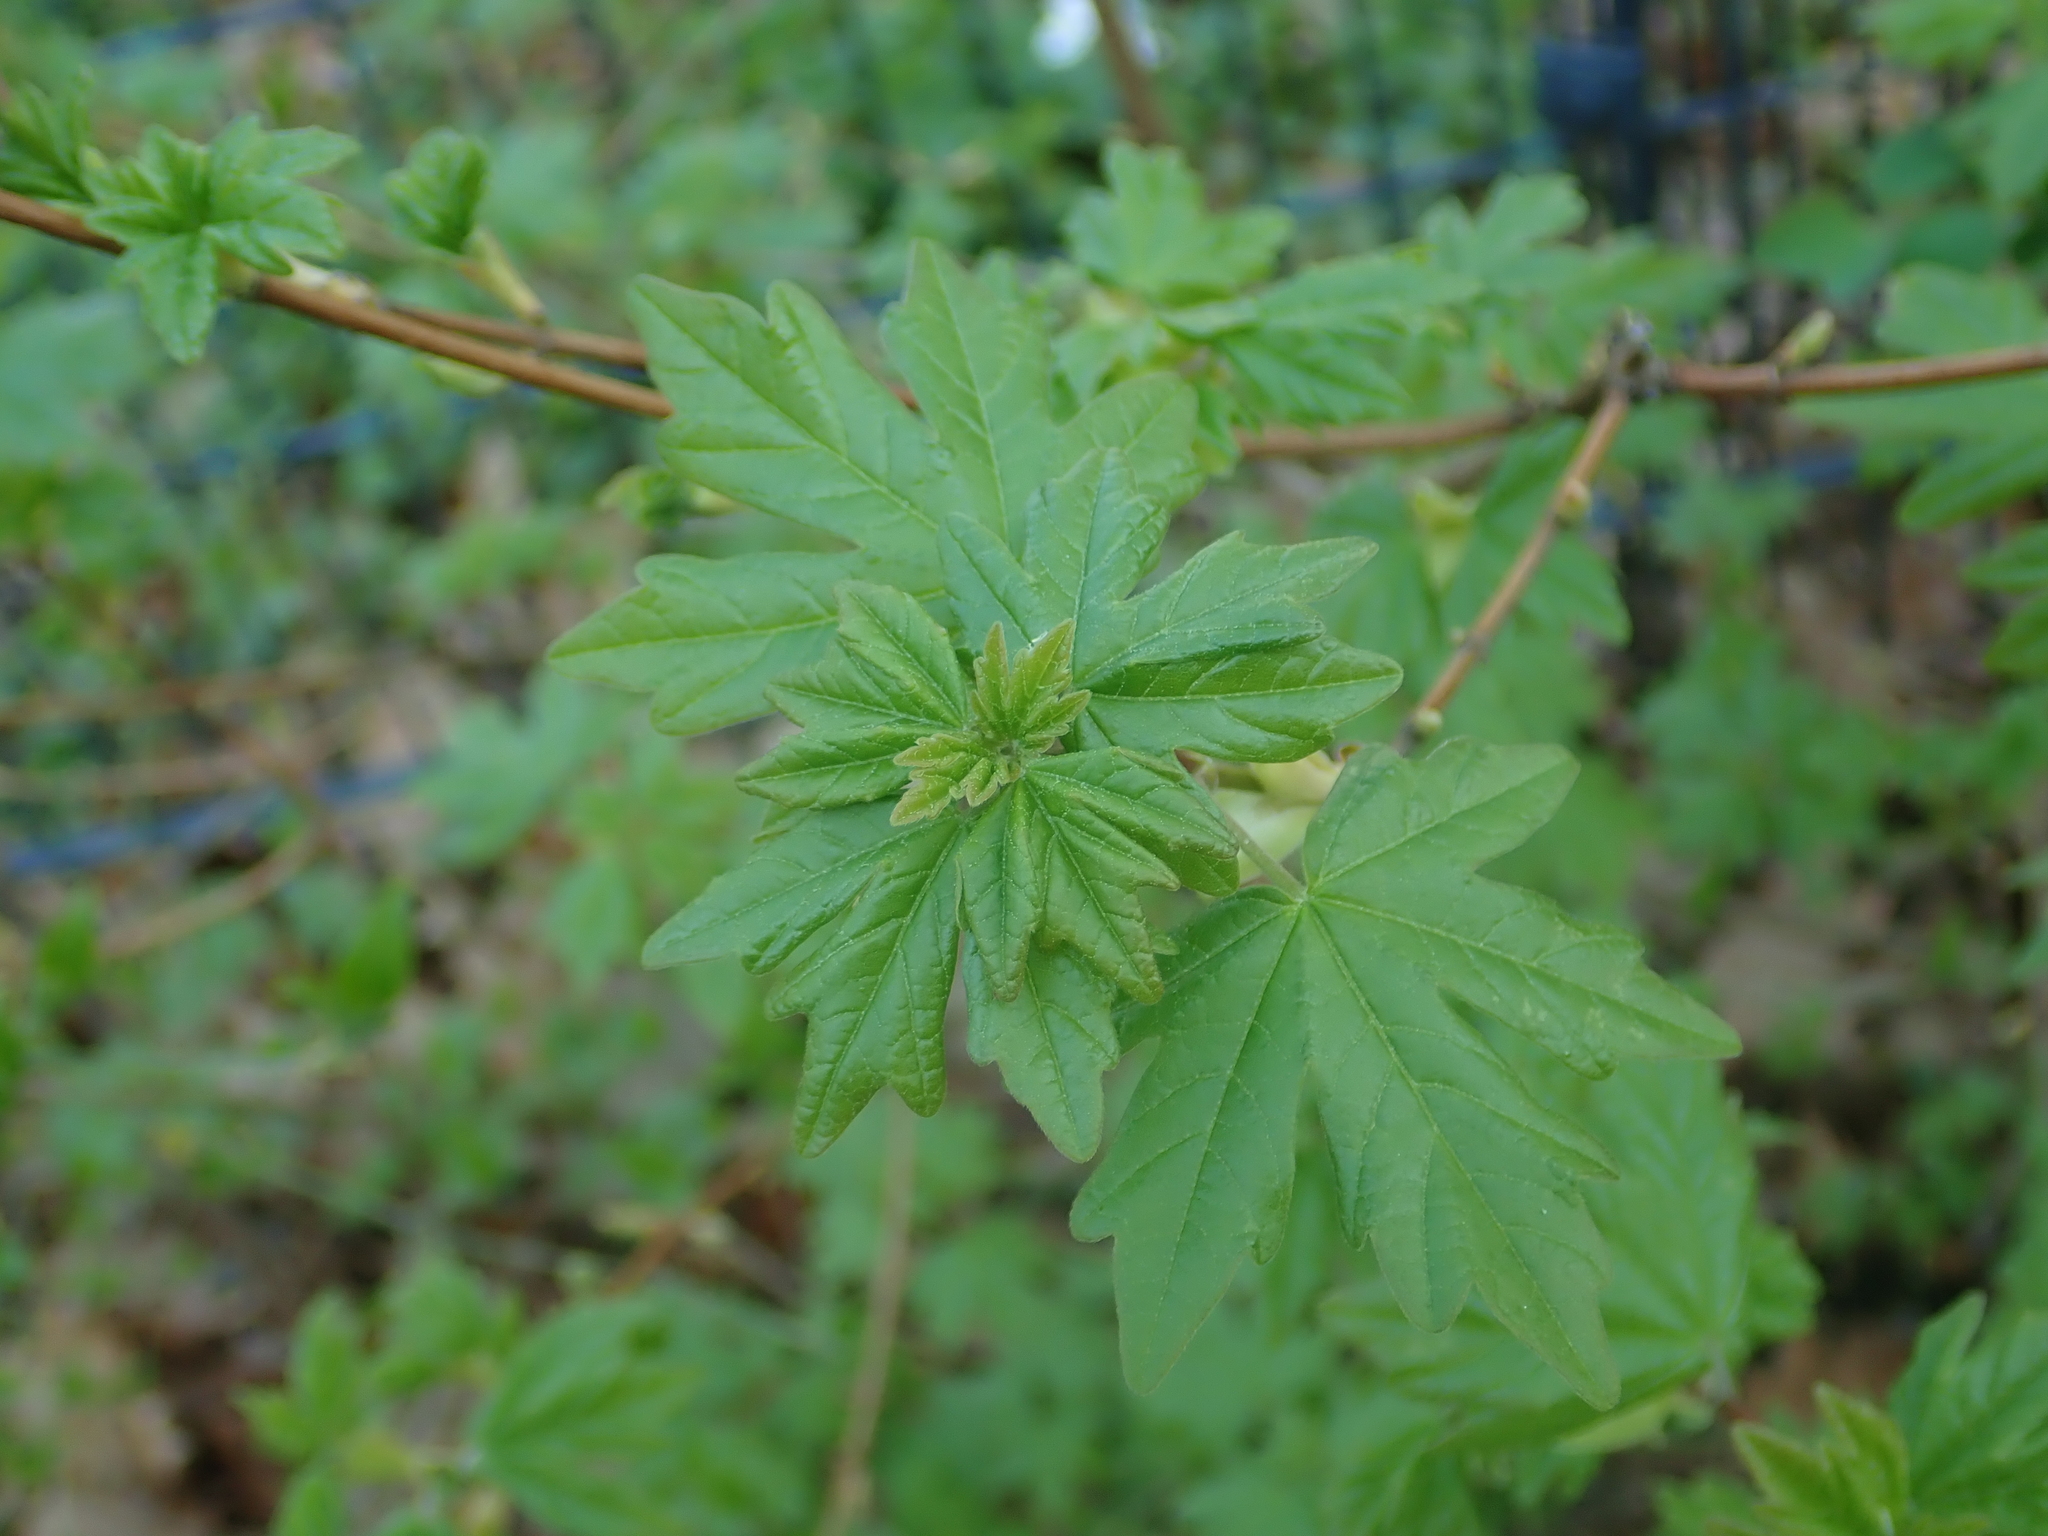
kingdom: Plantae
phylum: Tracheophyta
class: Magnoliopsida
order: Sapindales
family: Sapindaceae
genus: Acer
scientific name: Acer campestre
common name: Field maple
